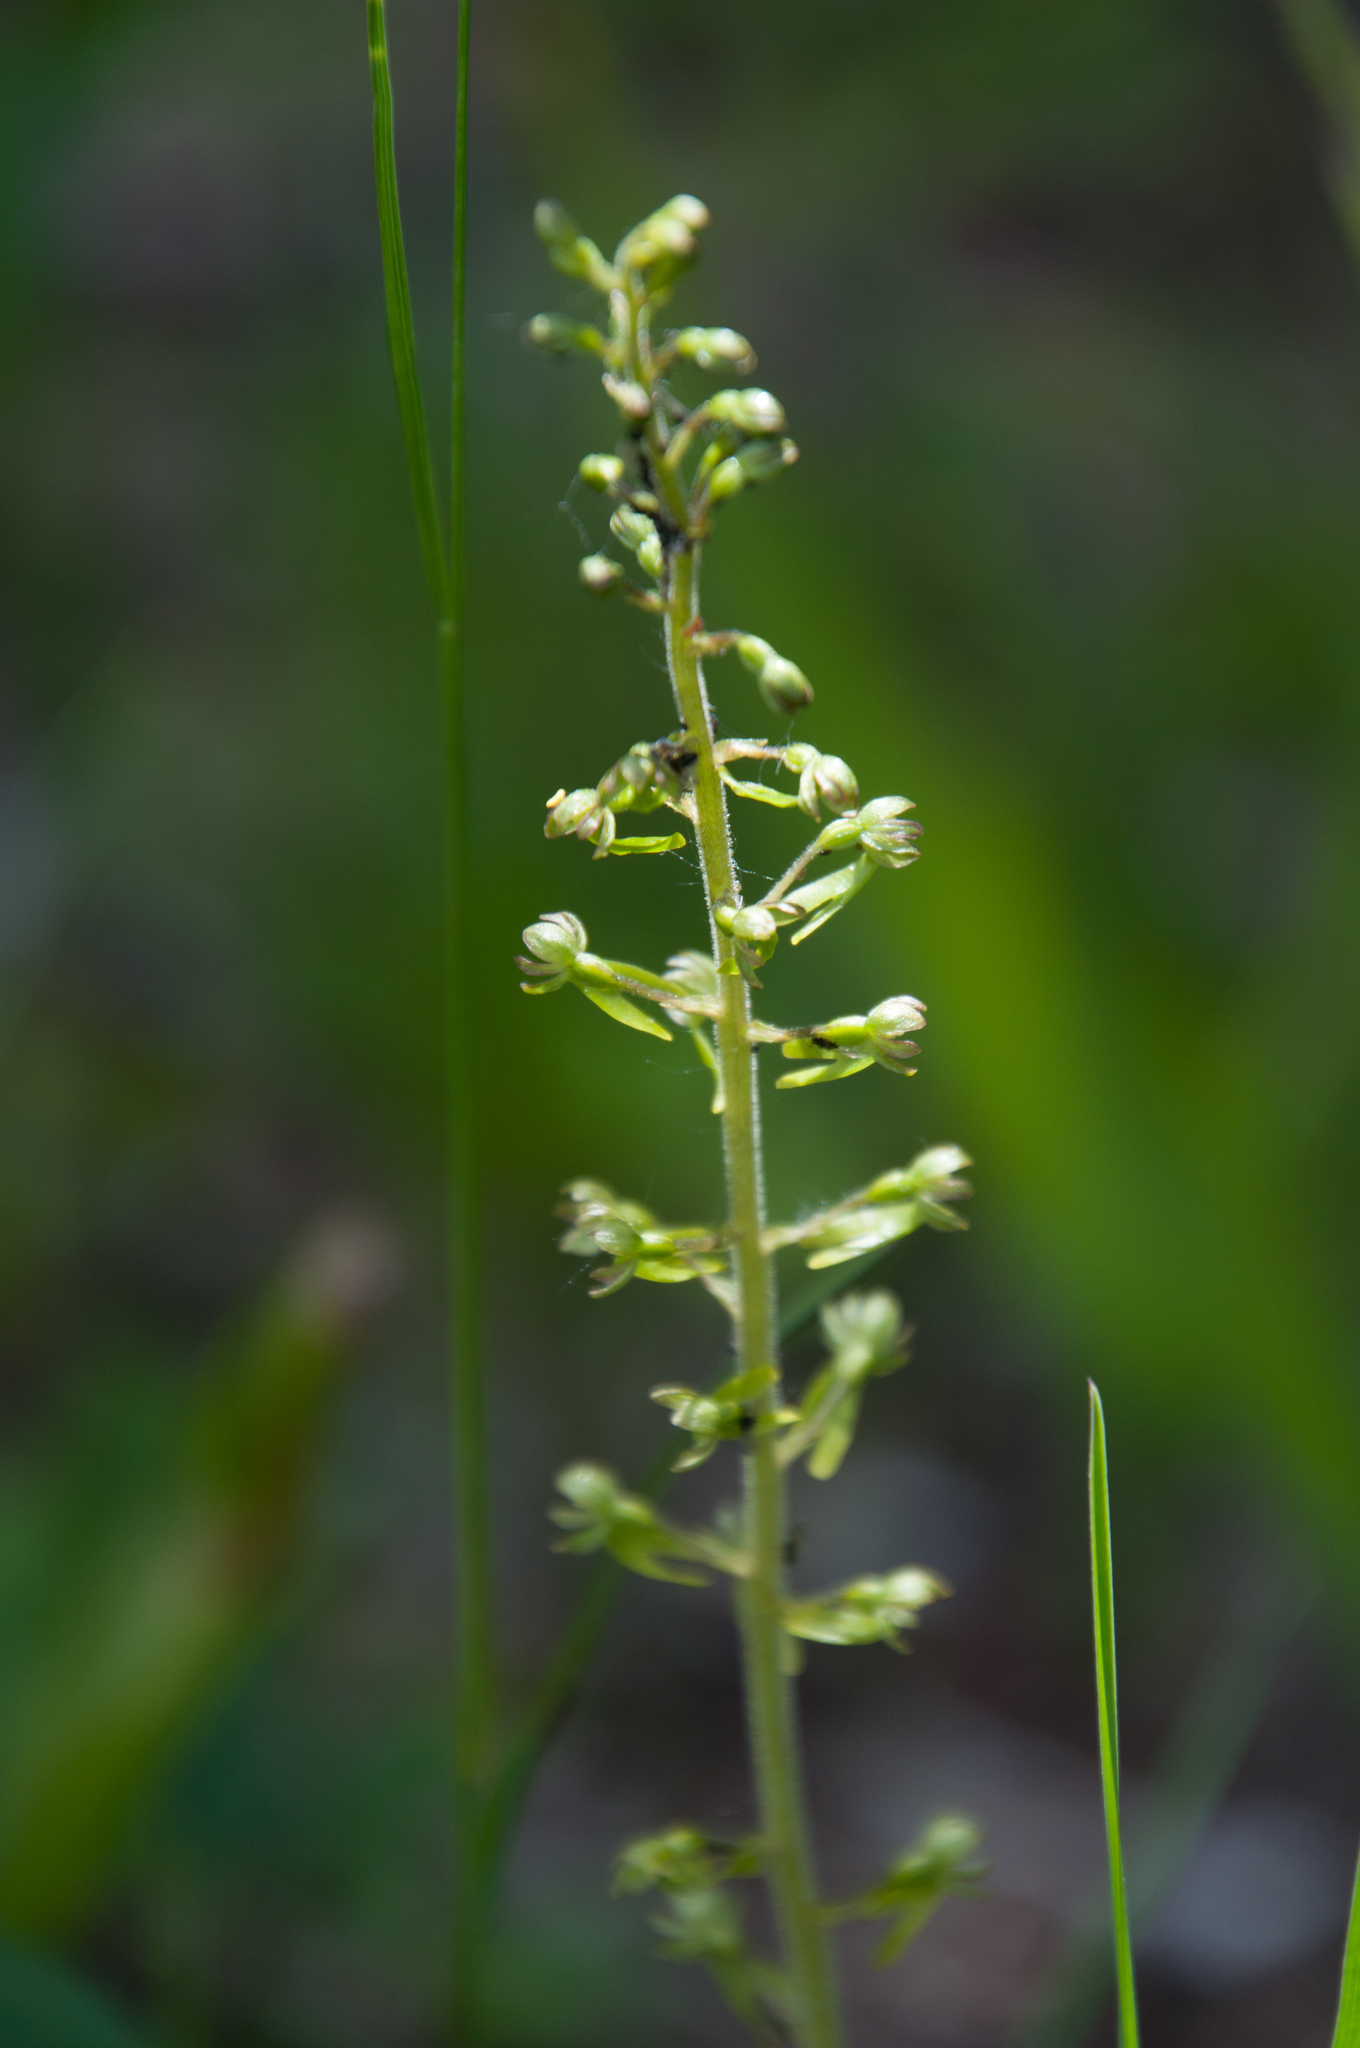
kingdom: Plantae
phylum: Tracheophyta
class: Liliopsida
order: Asparagales
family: Orchidaceae
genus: Neottia
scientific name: Neottia ovata
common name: Common twayblade
